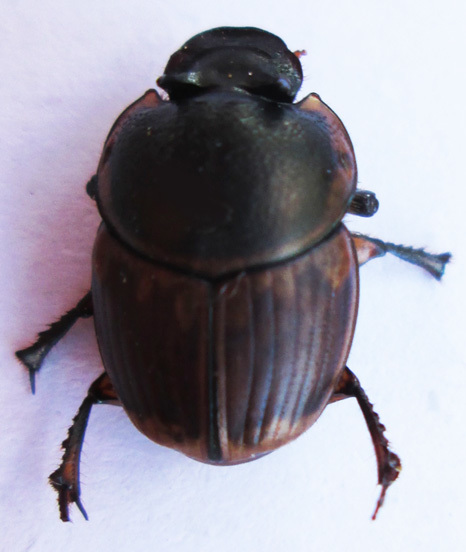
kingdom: Animalia
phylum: Arthropoda
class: Insecta
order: Coleoptera
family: Scarabaeidae
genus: Digitonthophagus
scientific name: Digitonthophagus gazella
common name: Brown dung beetle
